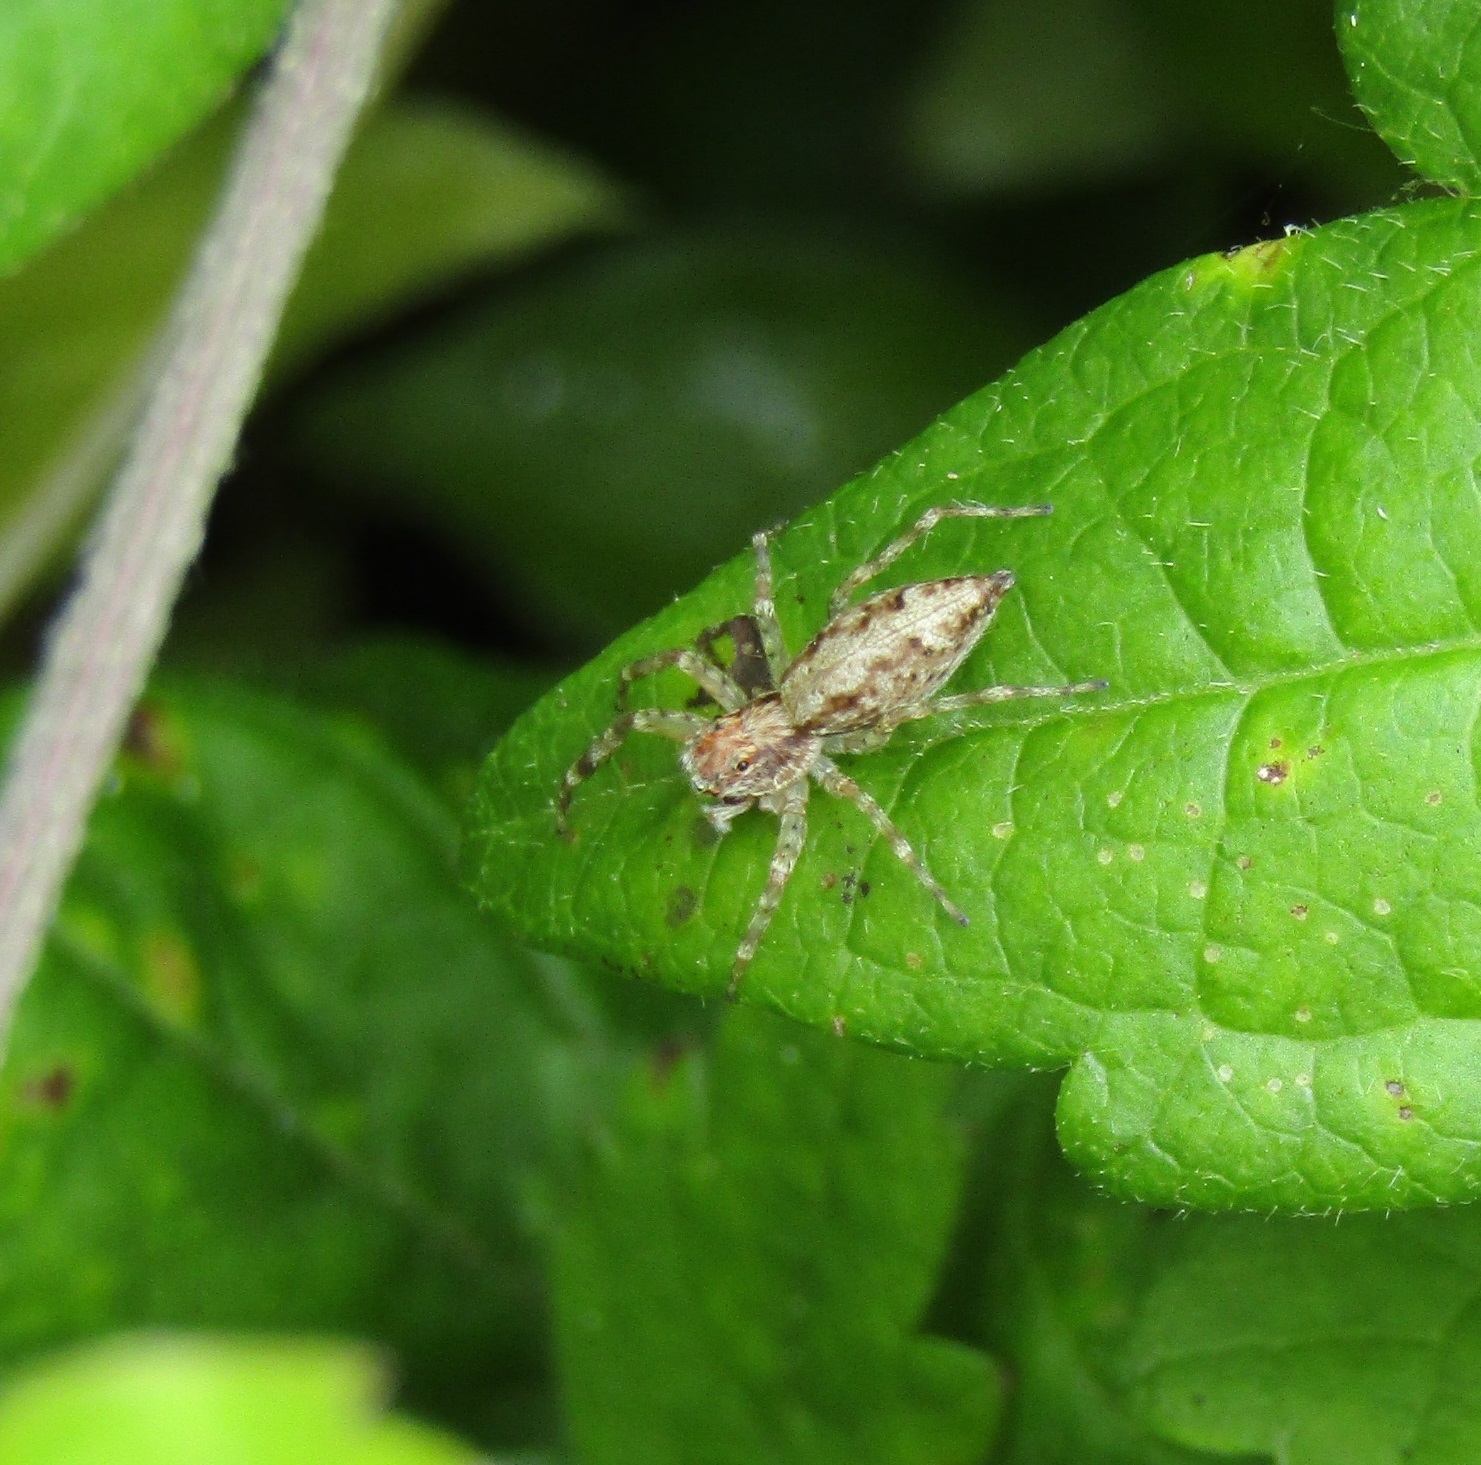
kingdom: Animalia
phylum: Arthropoda
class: Arachnida
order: Araneae
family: Salticidae
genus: Helpis
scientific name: Helpis minitabunda
